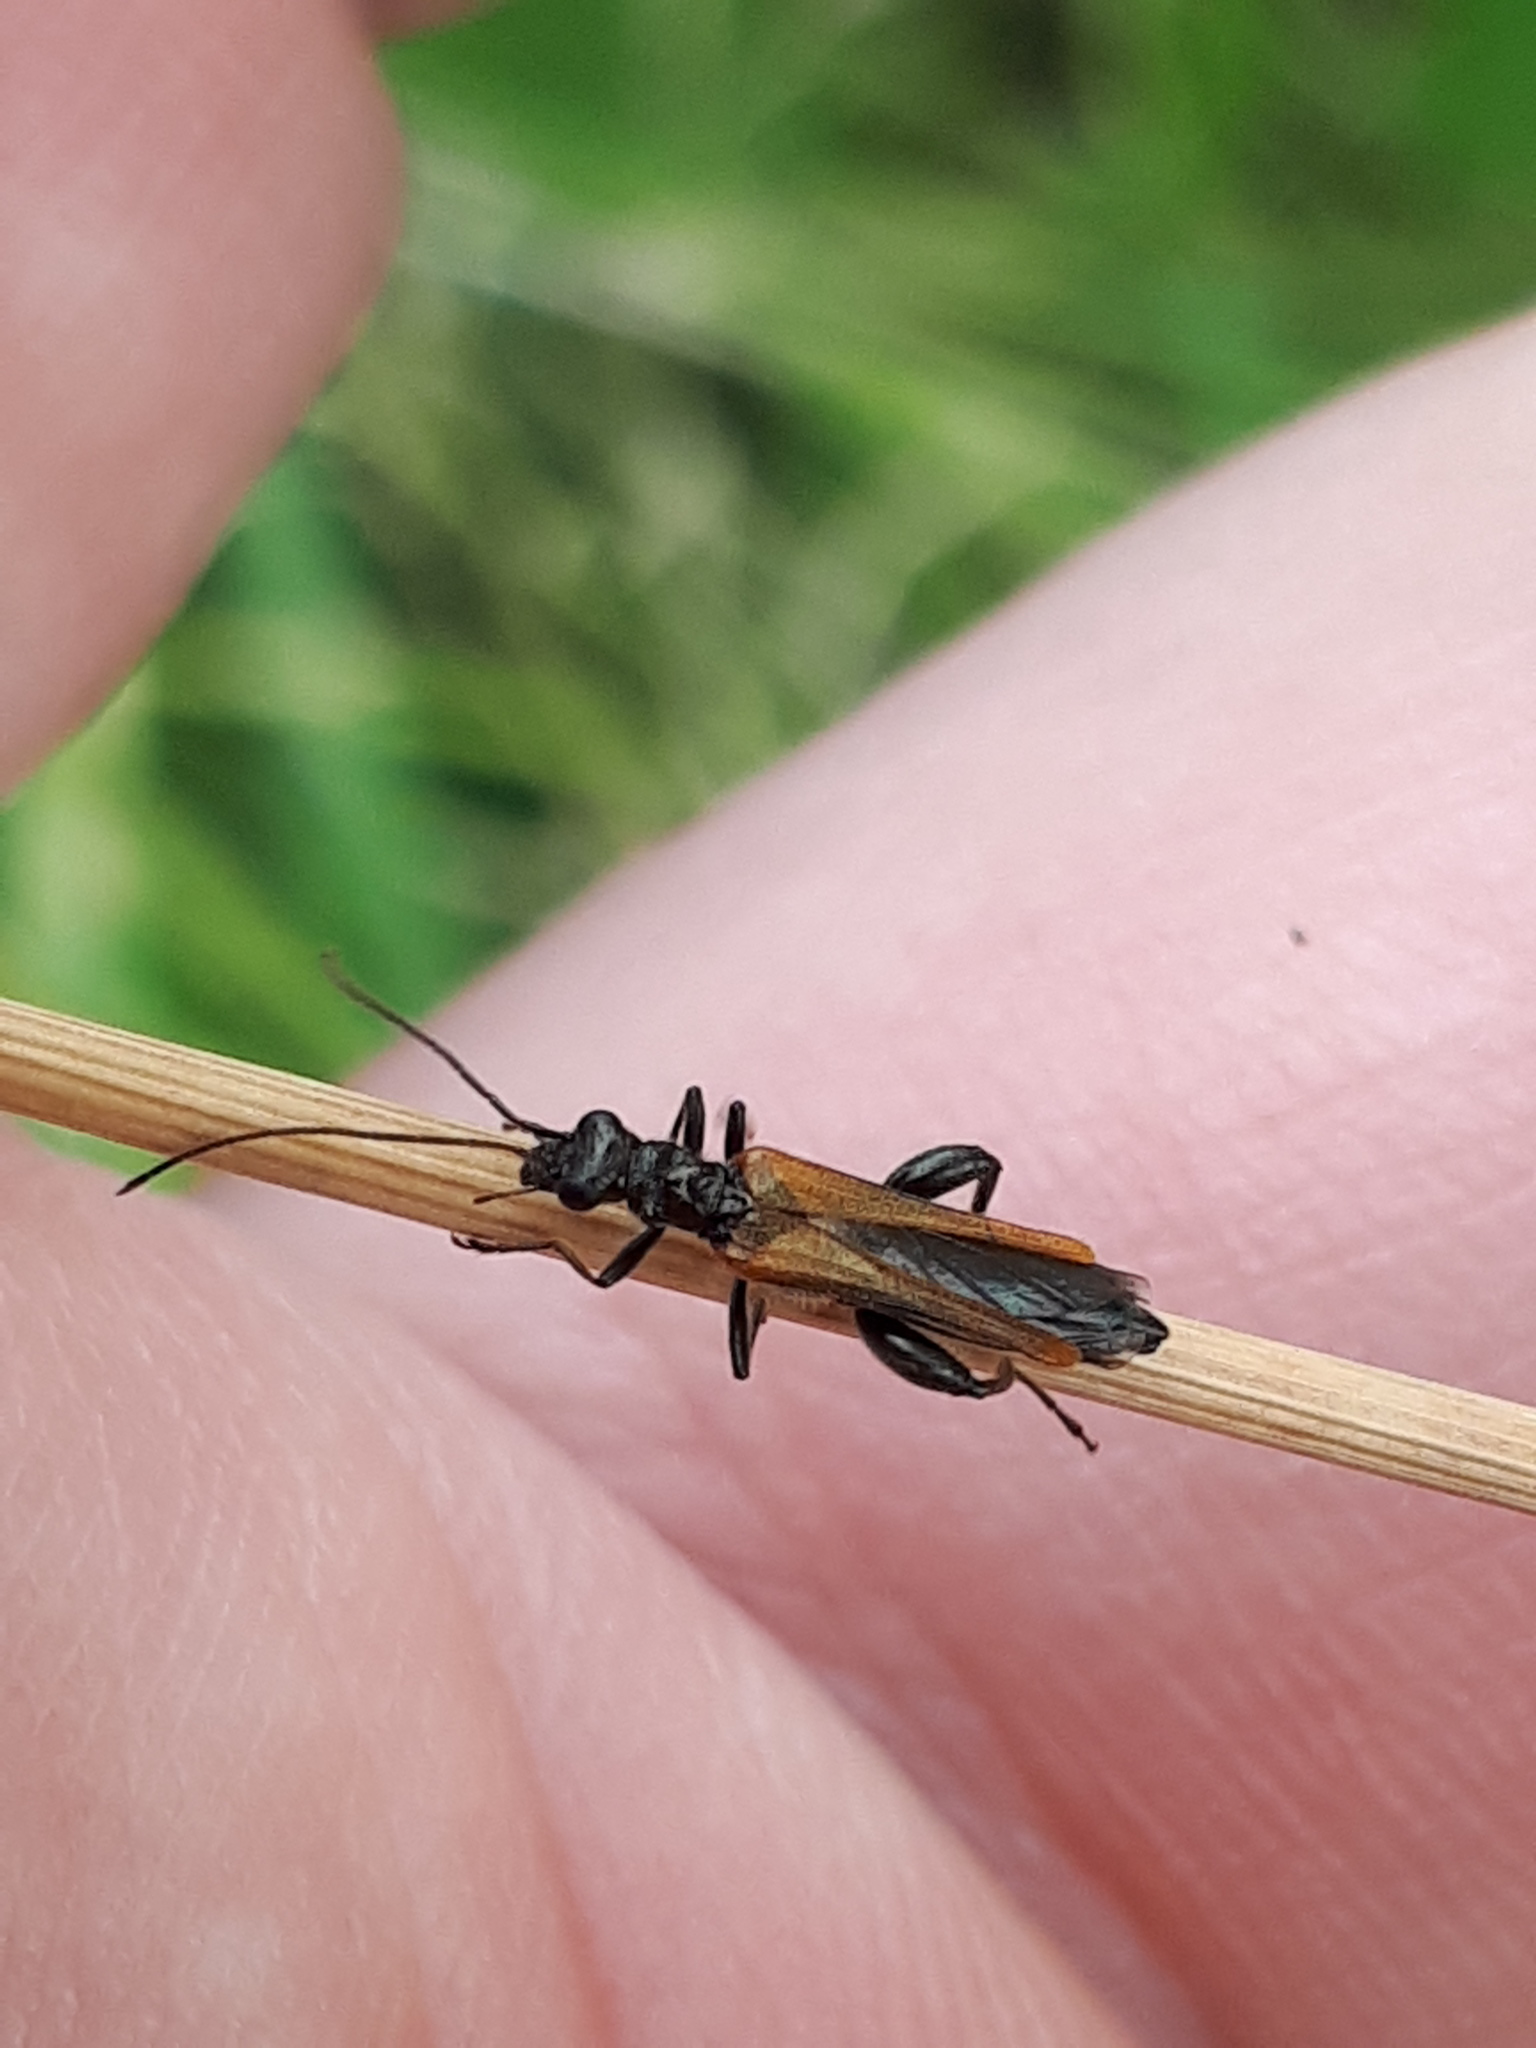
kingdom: Animalia
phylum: Arthropoda
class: Insecta
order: Coleoptera
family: Oedemeridae
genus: Oedemera
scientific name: Oedemera femorata
